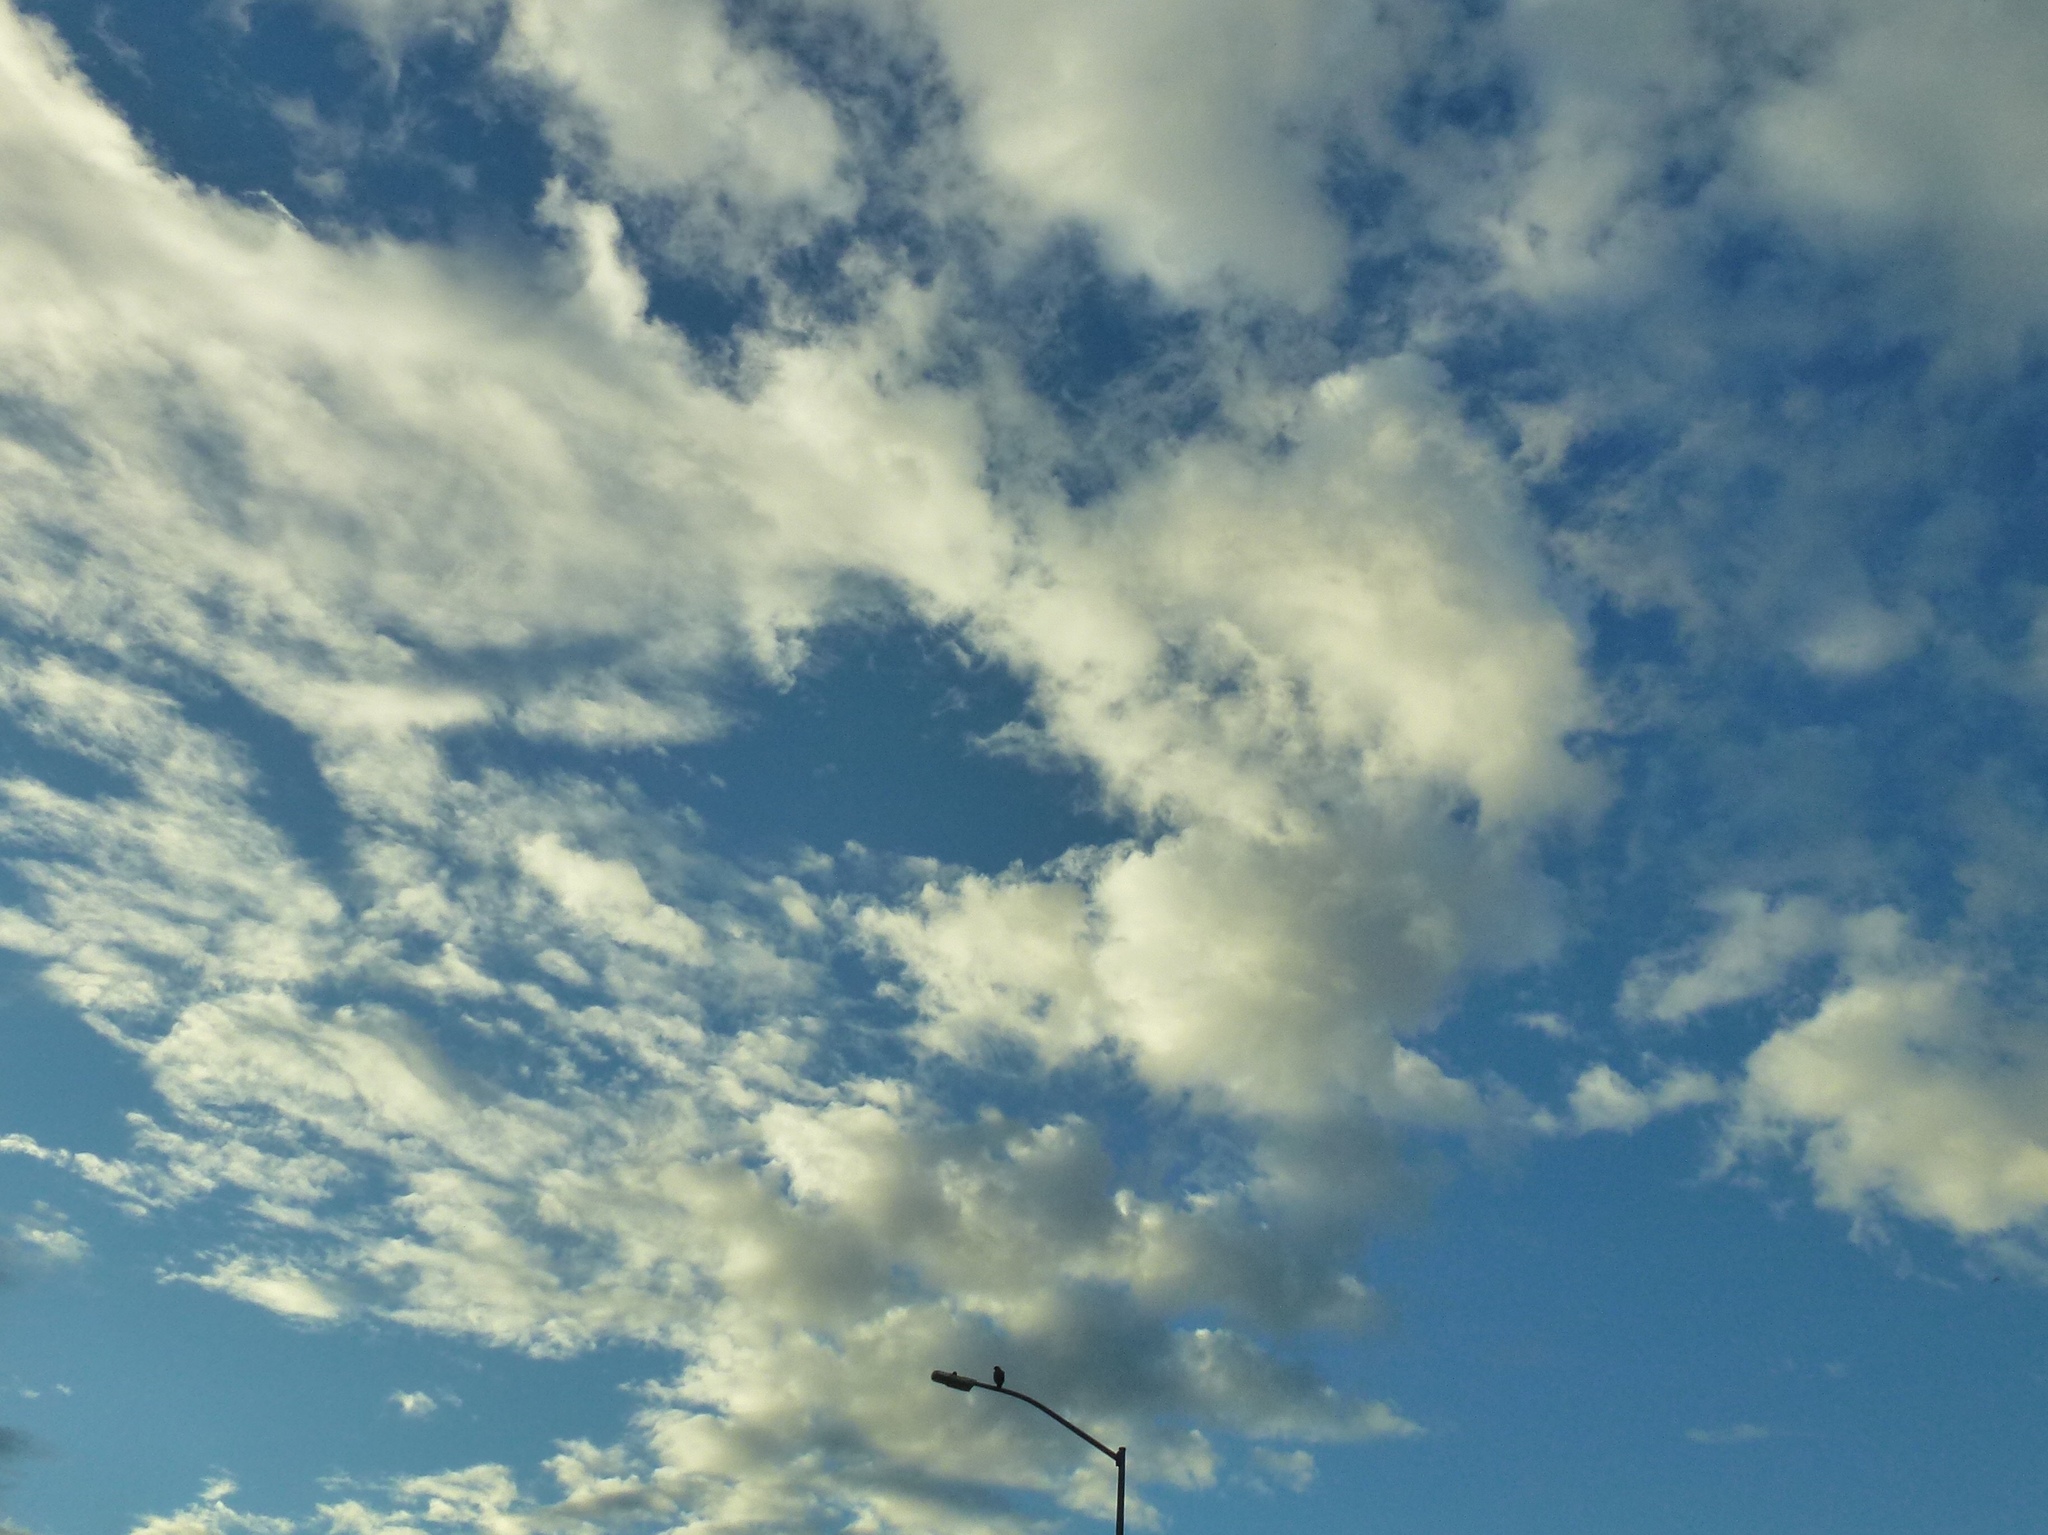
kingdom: Animalia
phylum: Chordata
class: Aves
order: Accipitriformes
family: Accipitridae
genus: Buteo
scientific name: Buteo jamaicensis
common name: Red-tailed hawk
